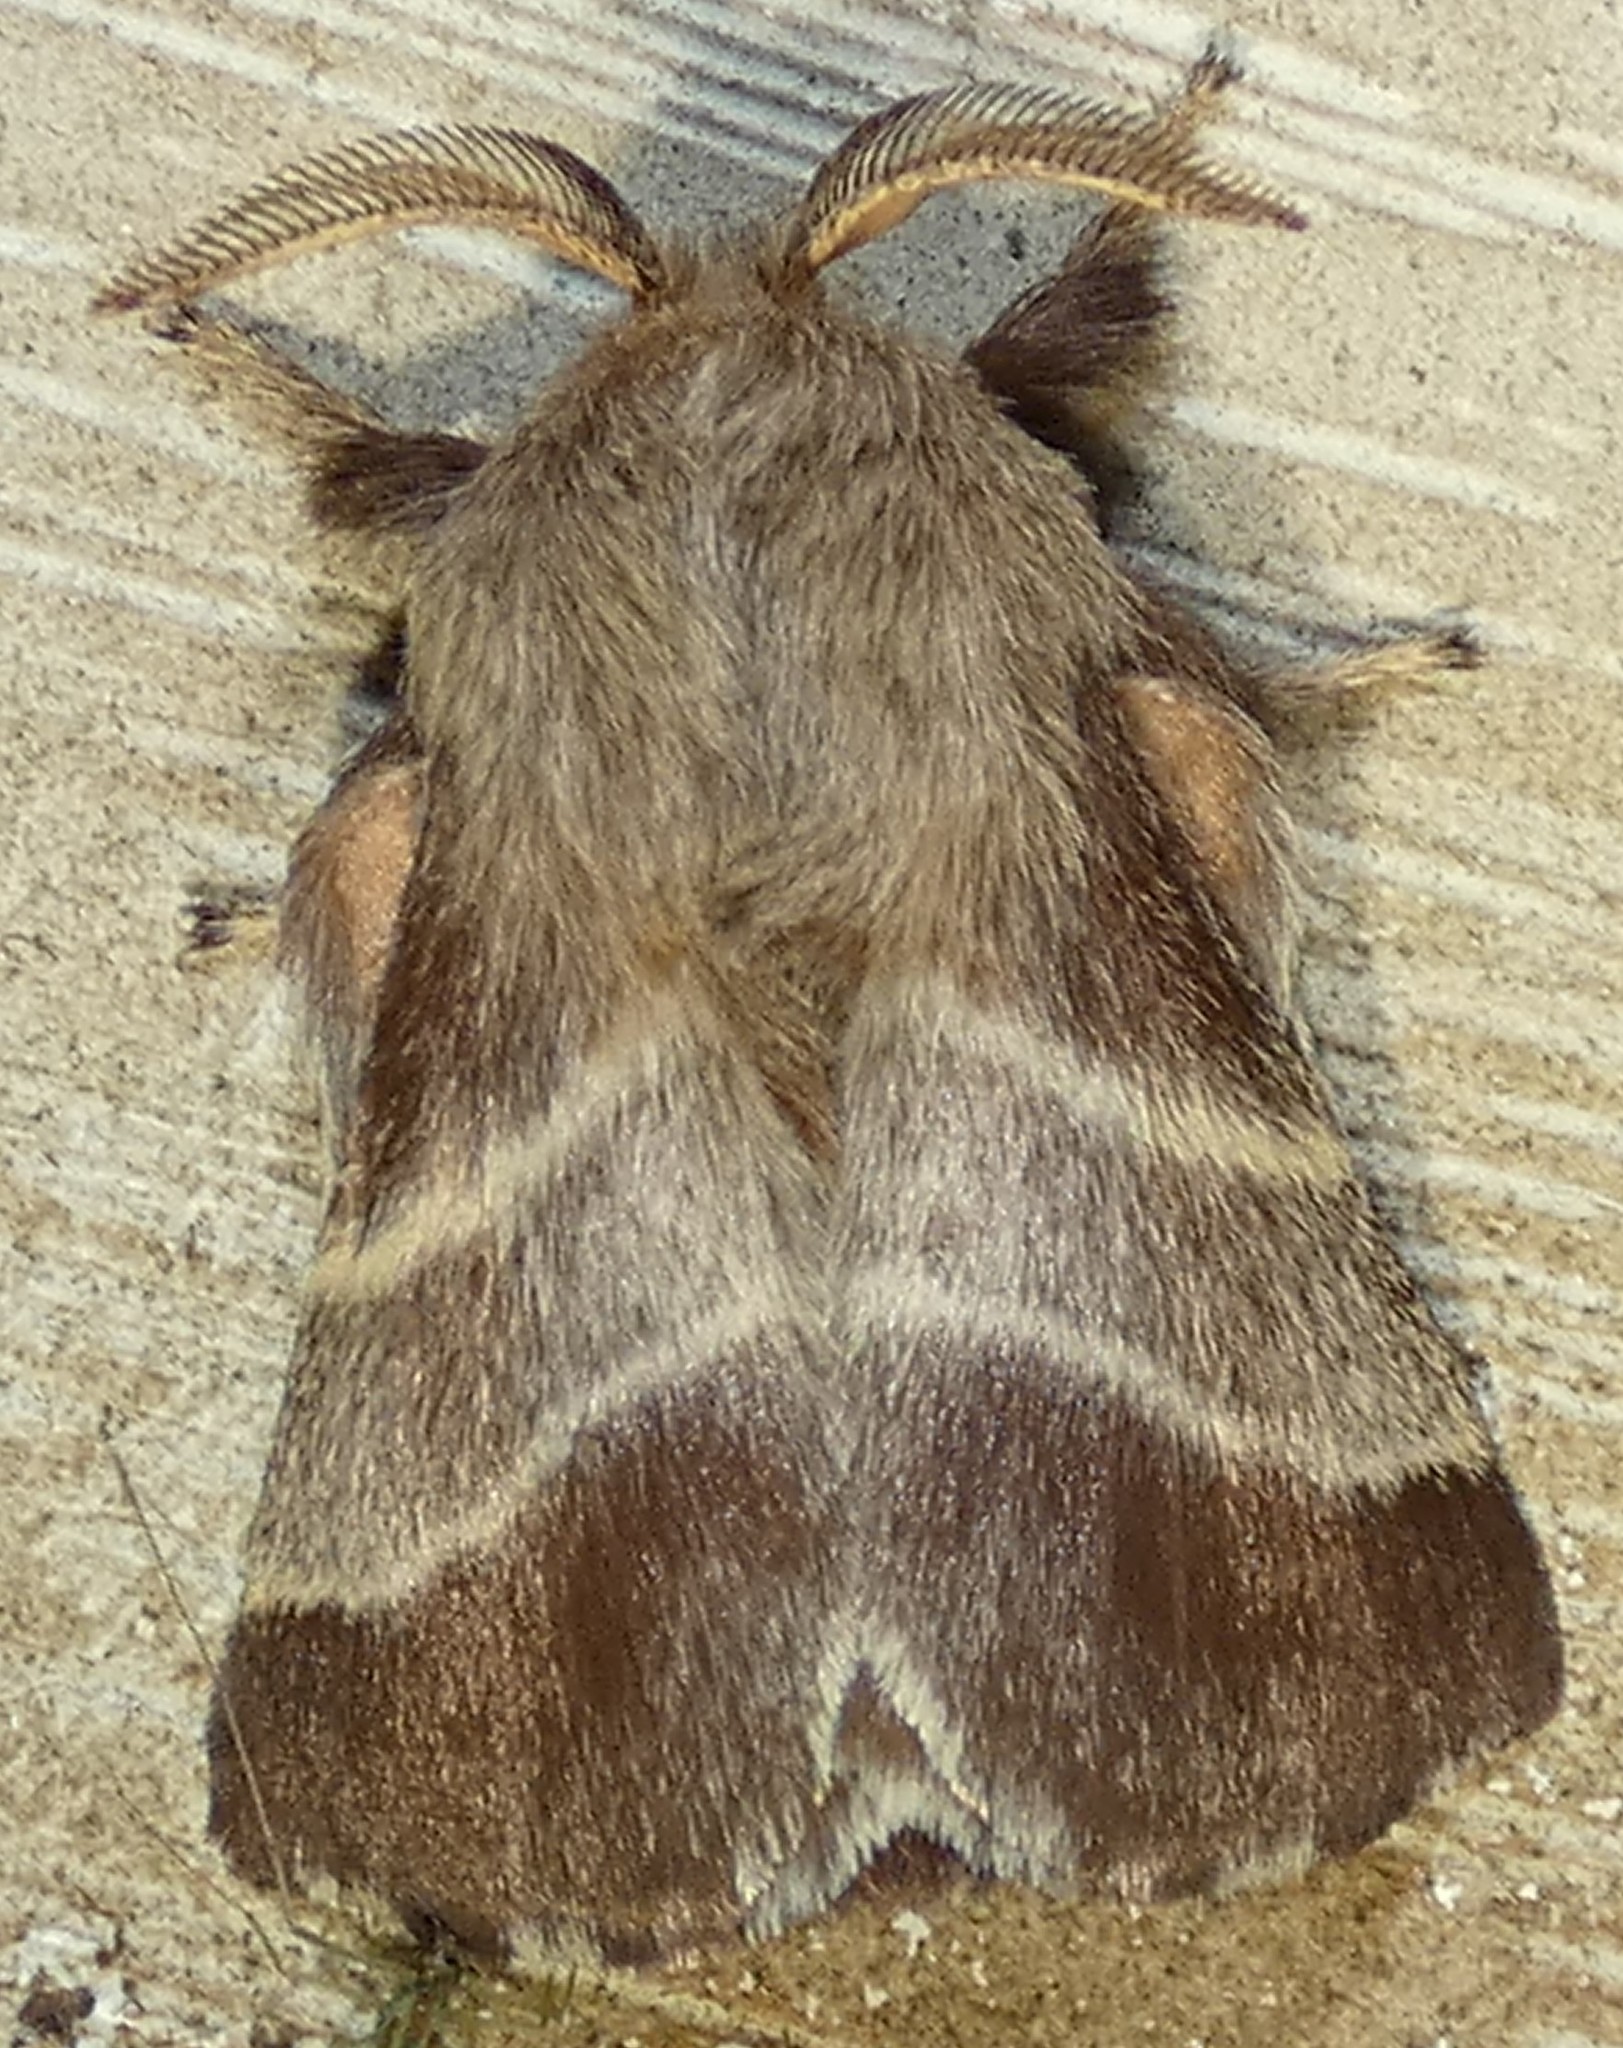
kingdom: Animalia
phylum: Arthropoda
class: Insecta
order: Lepidoptera
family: Lasiocampidae
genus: Malacosoma
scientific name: Malacosoma americana
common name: Eastern tent caterpillar moth
